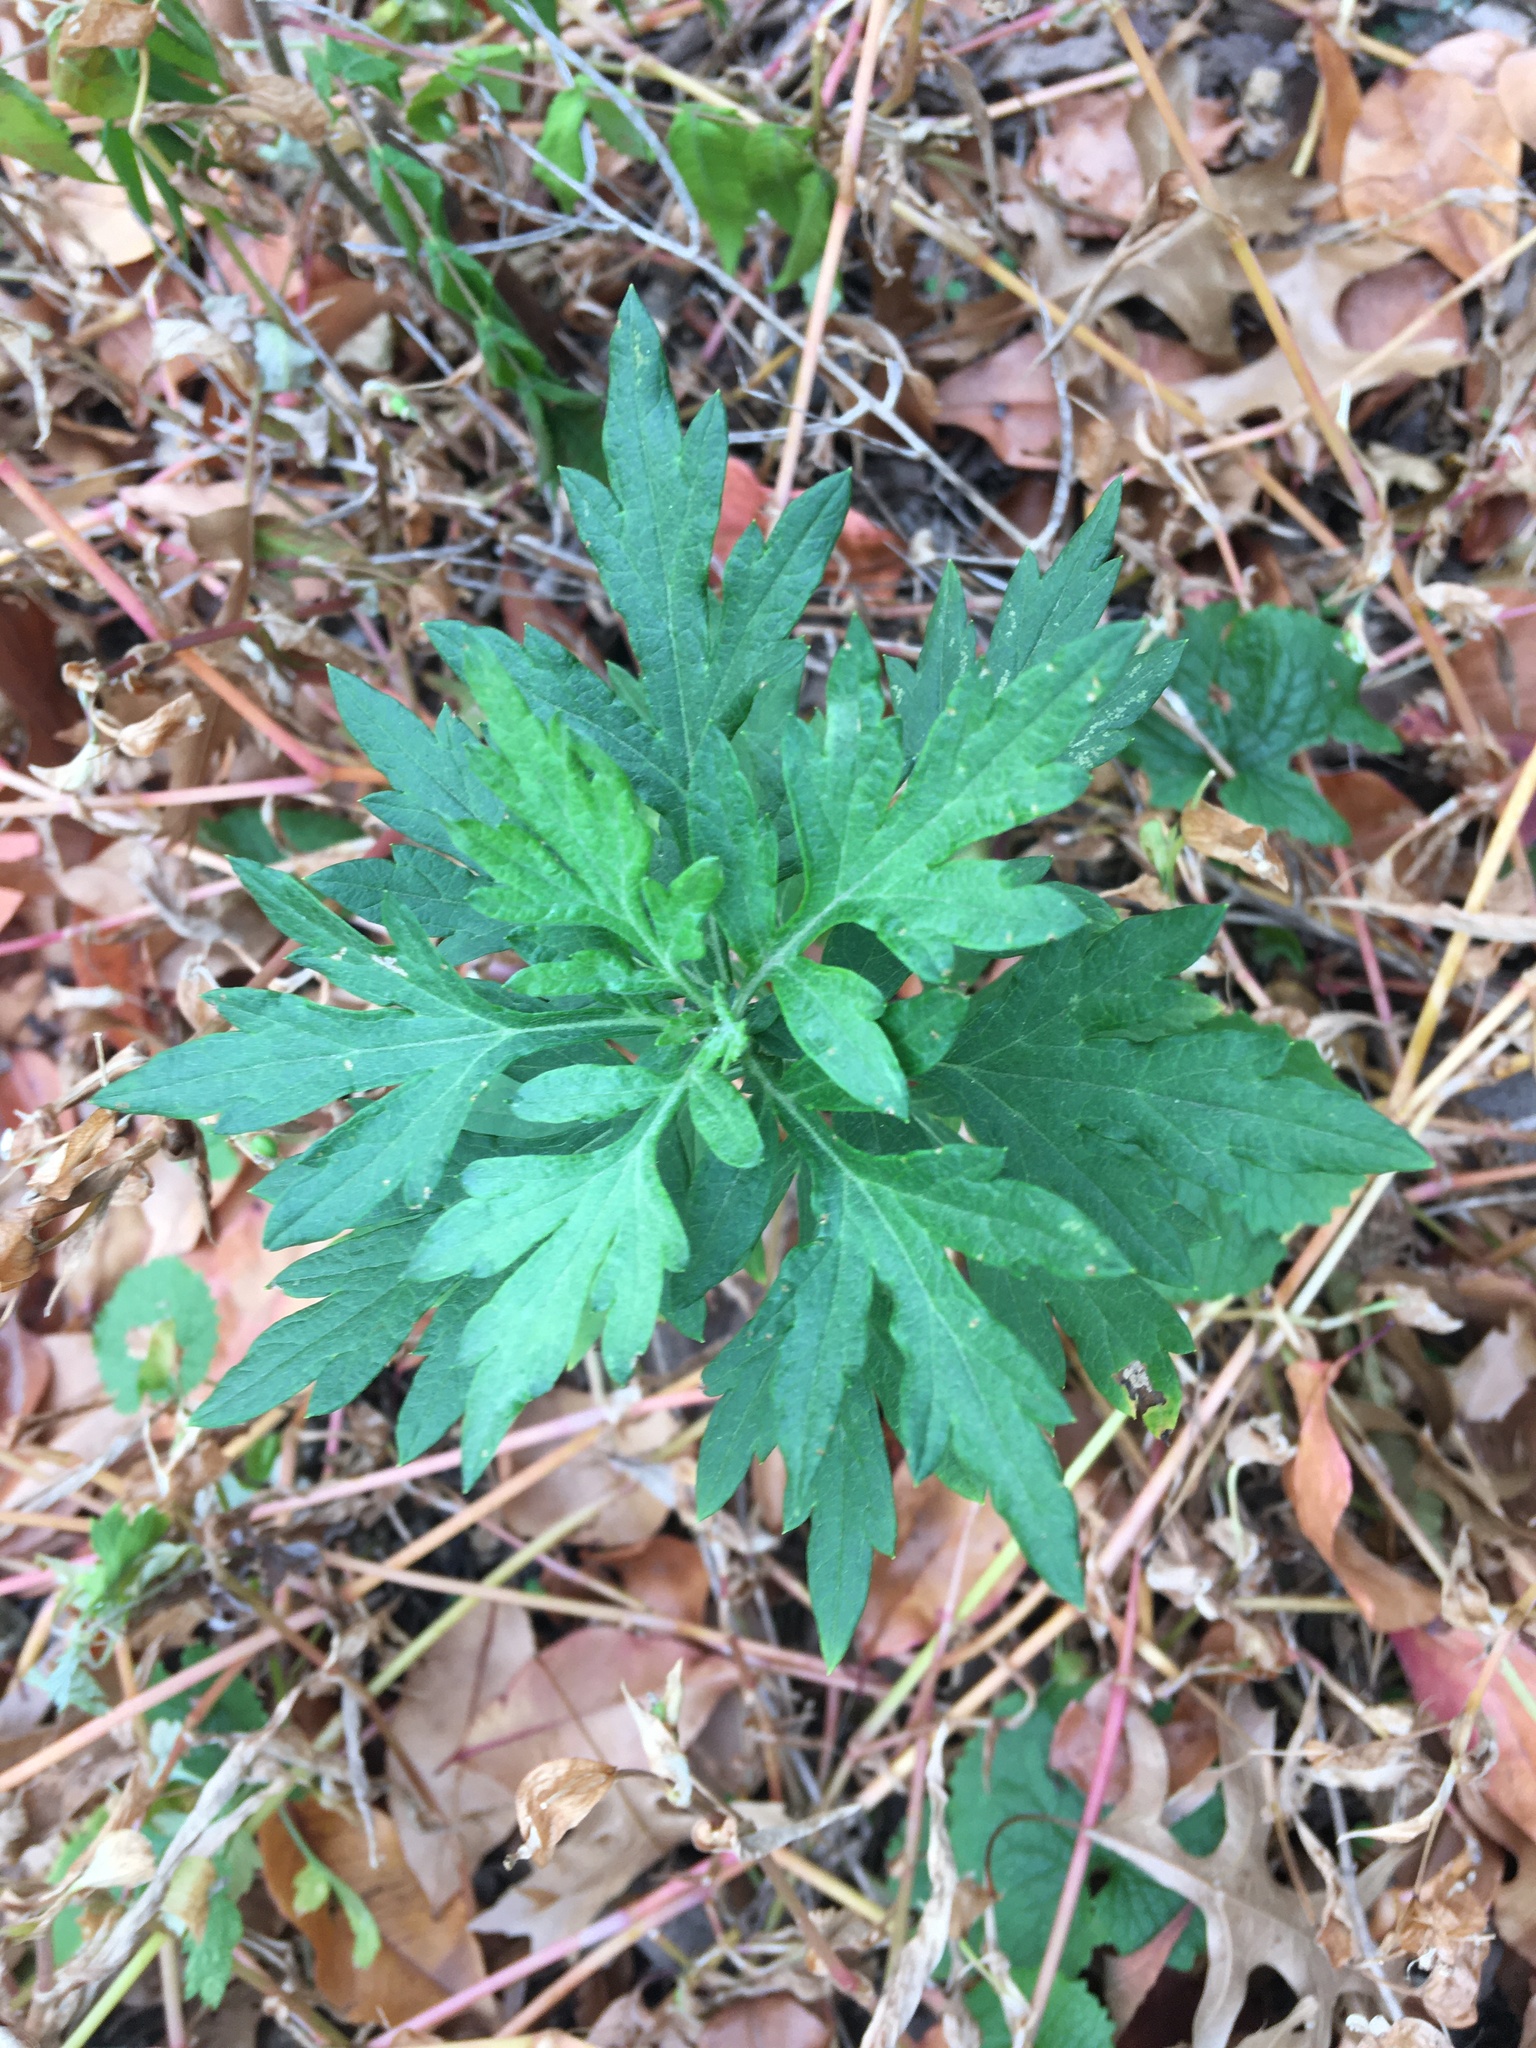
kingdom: Plantae
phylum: Tracheophyta
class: Magnoliopsida
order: Asterales
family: Asteraceae
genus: Artemisia
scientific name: Artemisia vulgaris
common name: Mugwort
